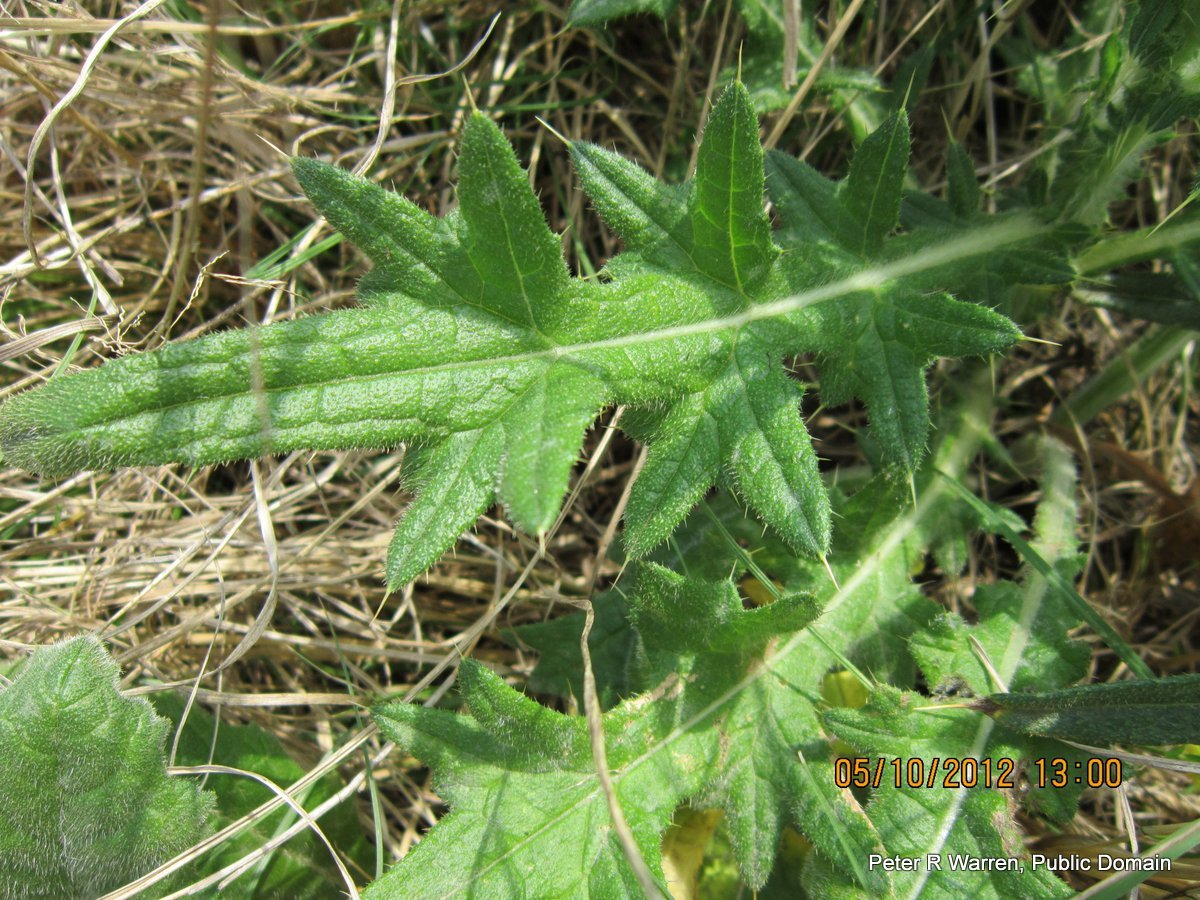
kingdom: Plantae
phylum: Tracheophyta
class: Magnoliopsida
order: Asterales
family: Asteraceae
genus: Cirsium
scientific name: Cirsium vulgare
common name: Bull thistle
